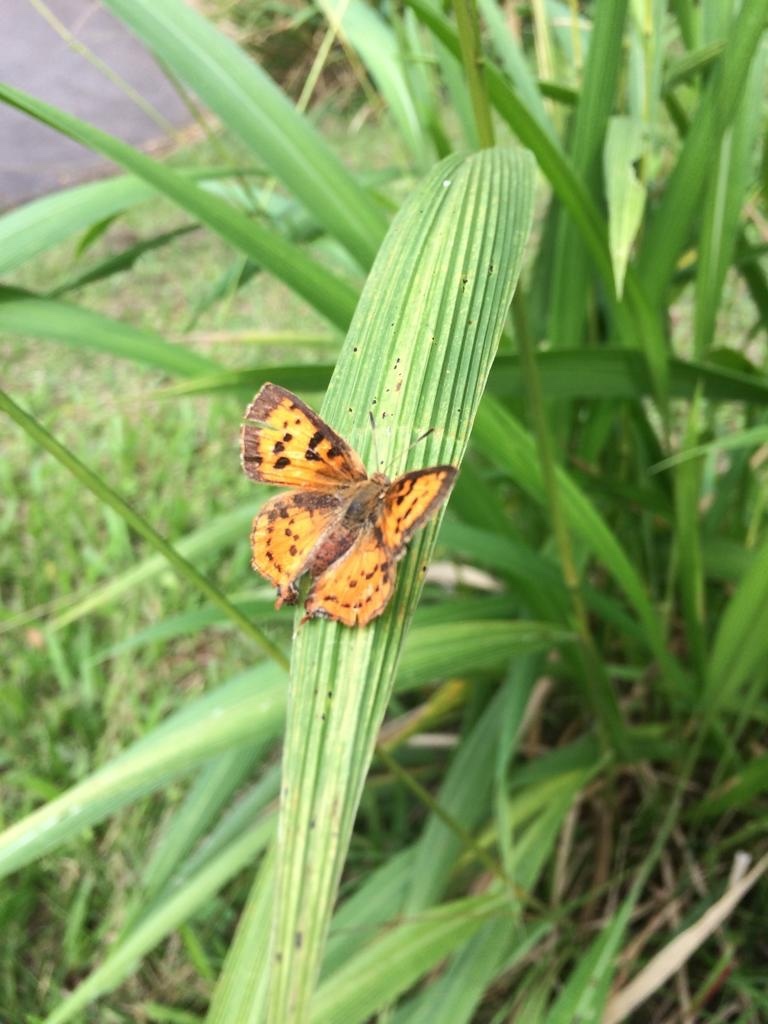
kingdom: Animalia
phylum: Arthropoda
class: Insecta
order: Lepidoptera
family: Lycaenidae
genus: Axiocerses
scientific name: Axiocerses perion
